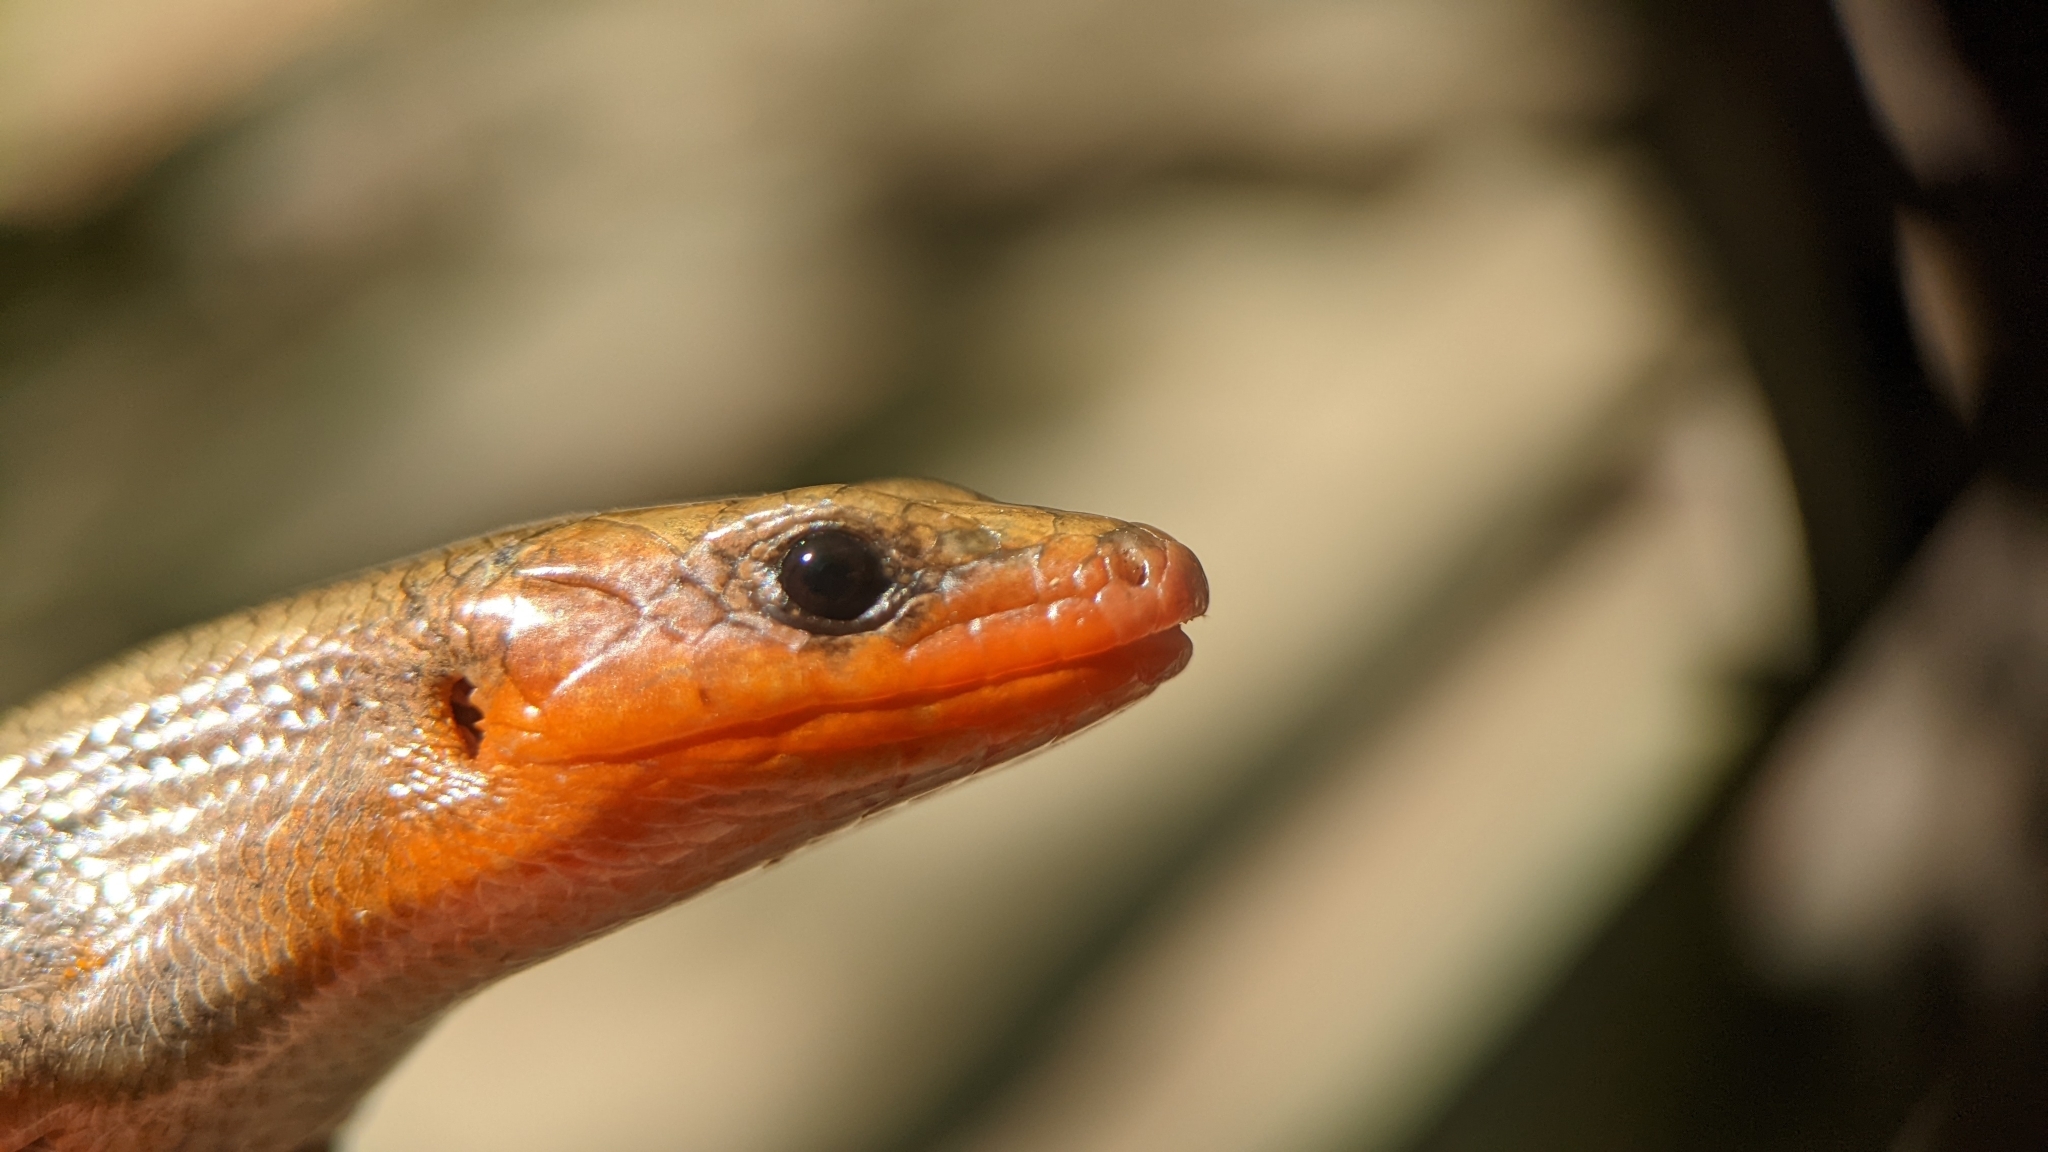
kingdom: Animalia
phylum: Chordata
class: Squamata
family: Scincidae
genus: Plestiodon
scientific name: Plestiodon fasciatus
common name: Five-lined skink
